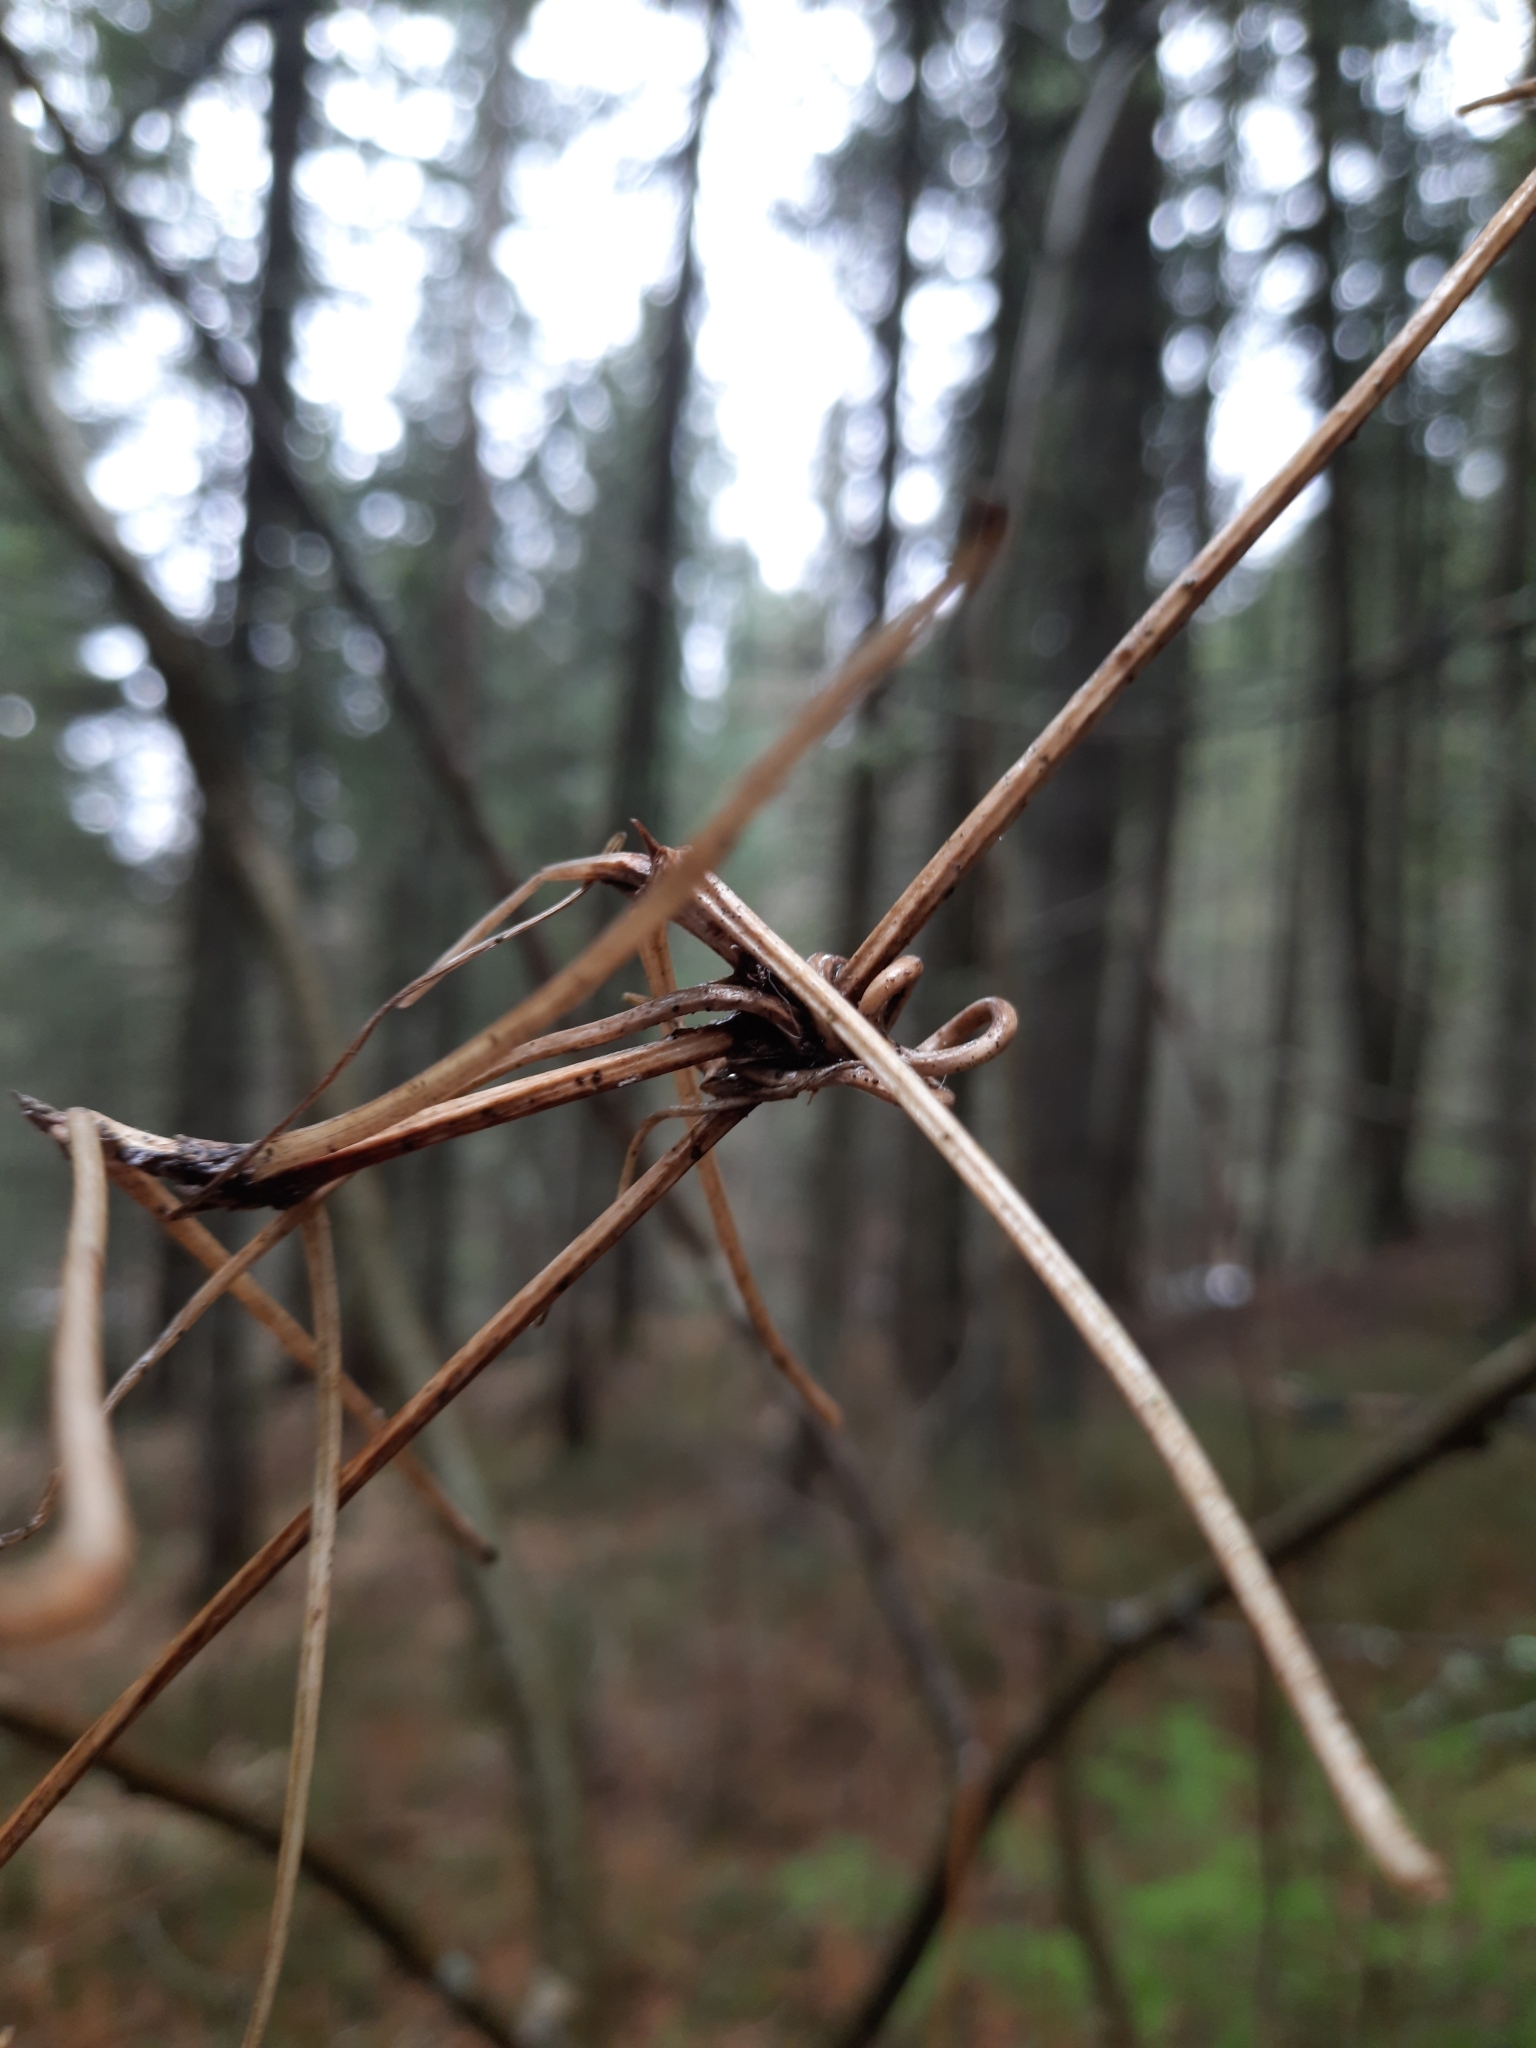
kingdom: Plantae
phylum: Tracheophyta
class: Magnoliopsida
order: Ranunculales
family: Ranunculaceae
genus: Clematis
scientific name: Clematis sibirica
